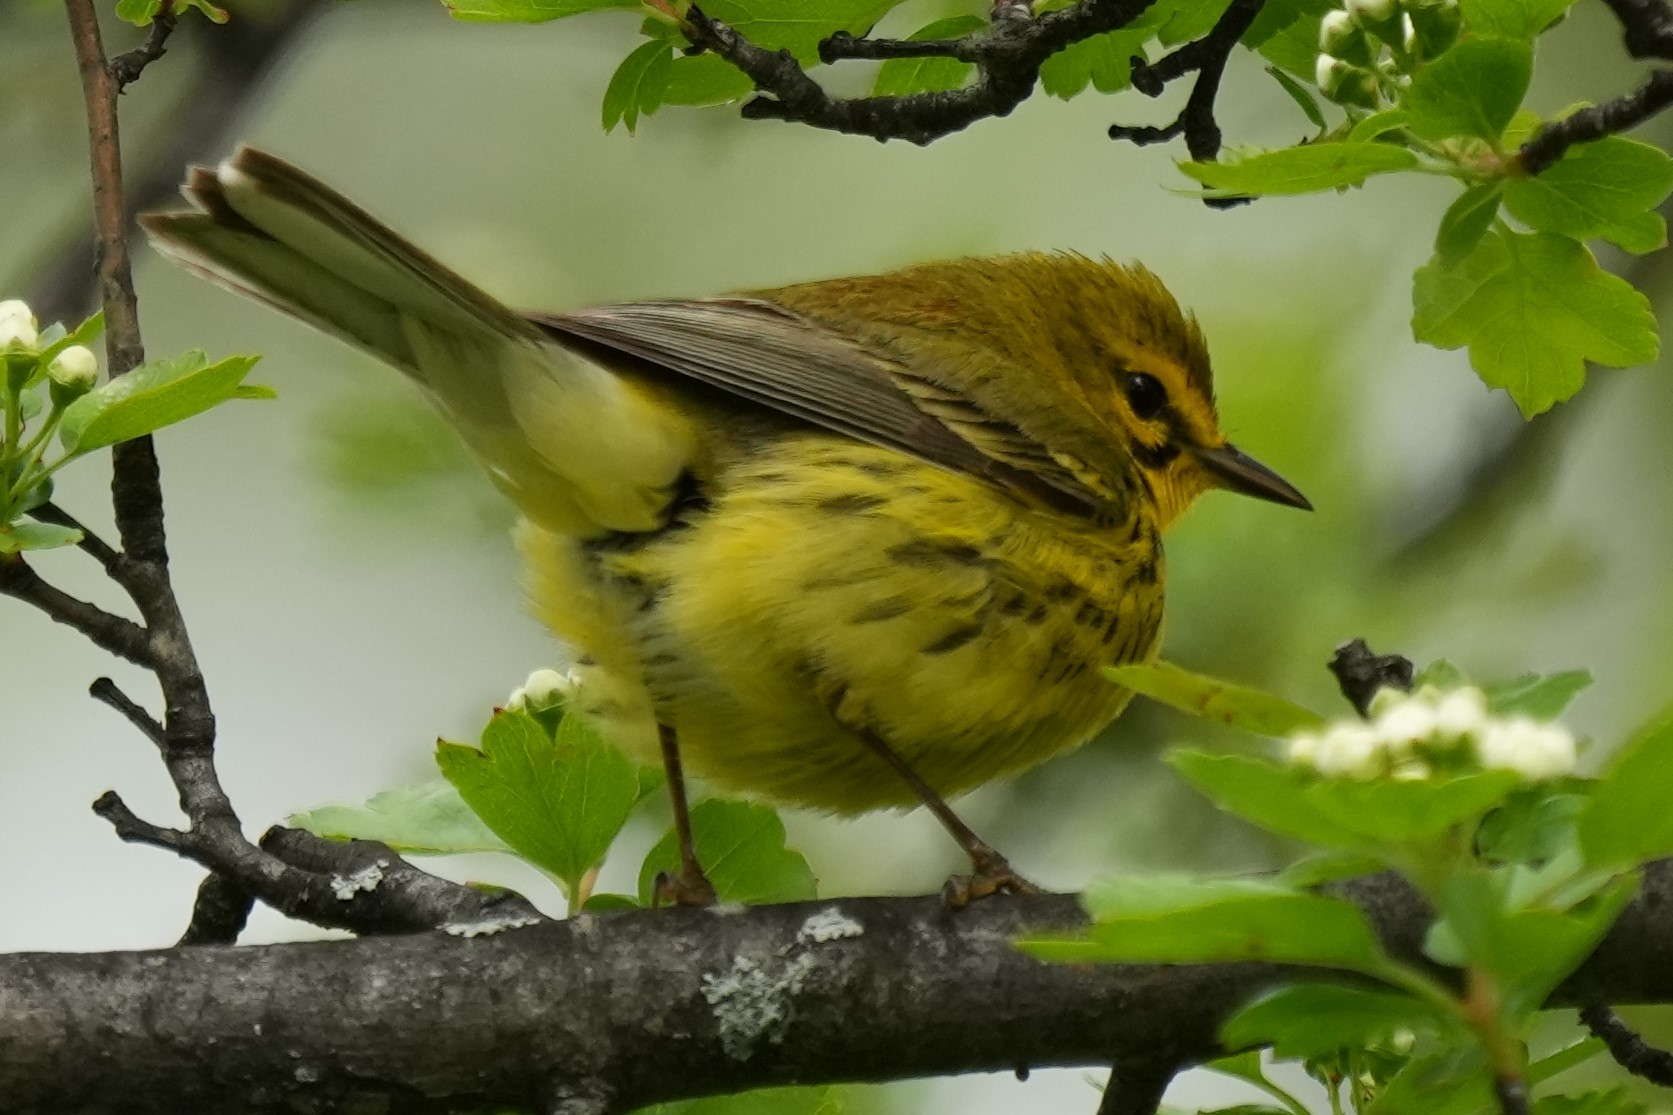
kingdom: Animalia
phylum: Chordata
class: Aves
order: Passeriformes
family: Parulidae
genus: Setophaga
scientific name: Setophaga discolor
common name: Prairie warbler
